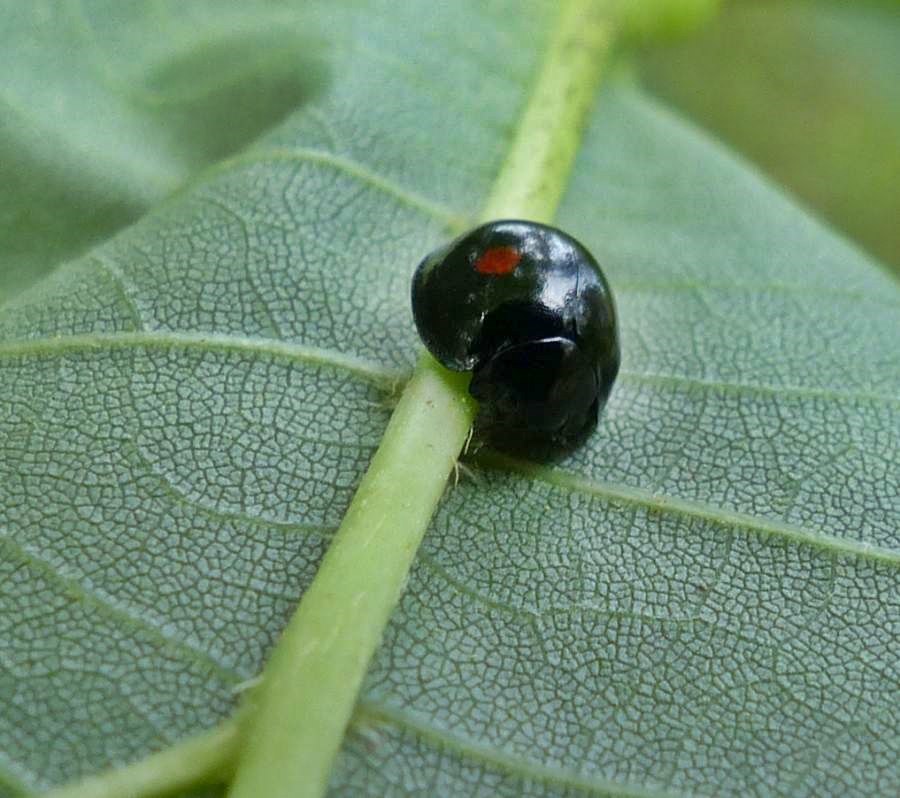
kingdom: Animalia
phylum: Arthropoda
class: Insecta
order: Coleoptera
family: Coccinellidae
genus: Chilocorus
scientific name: Chilocorus stigma
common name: Twicestabbed lady beetle
